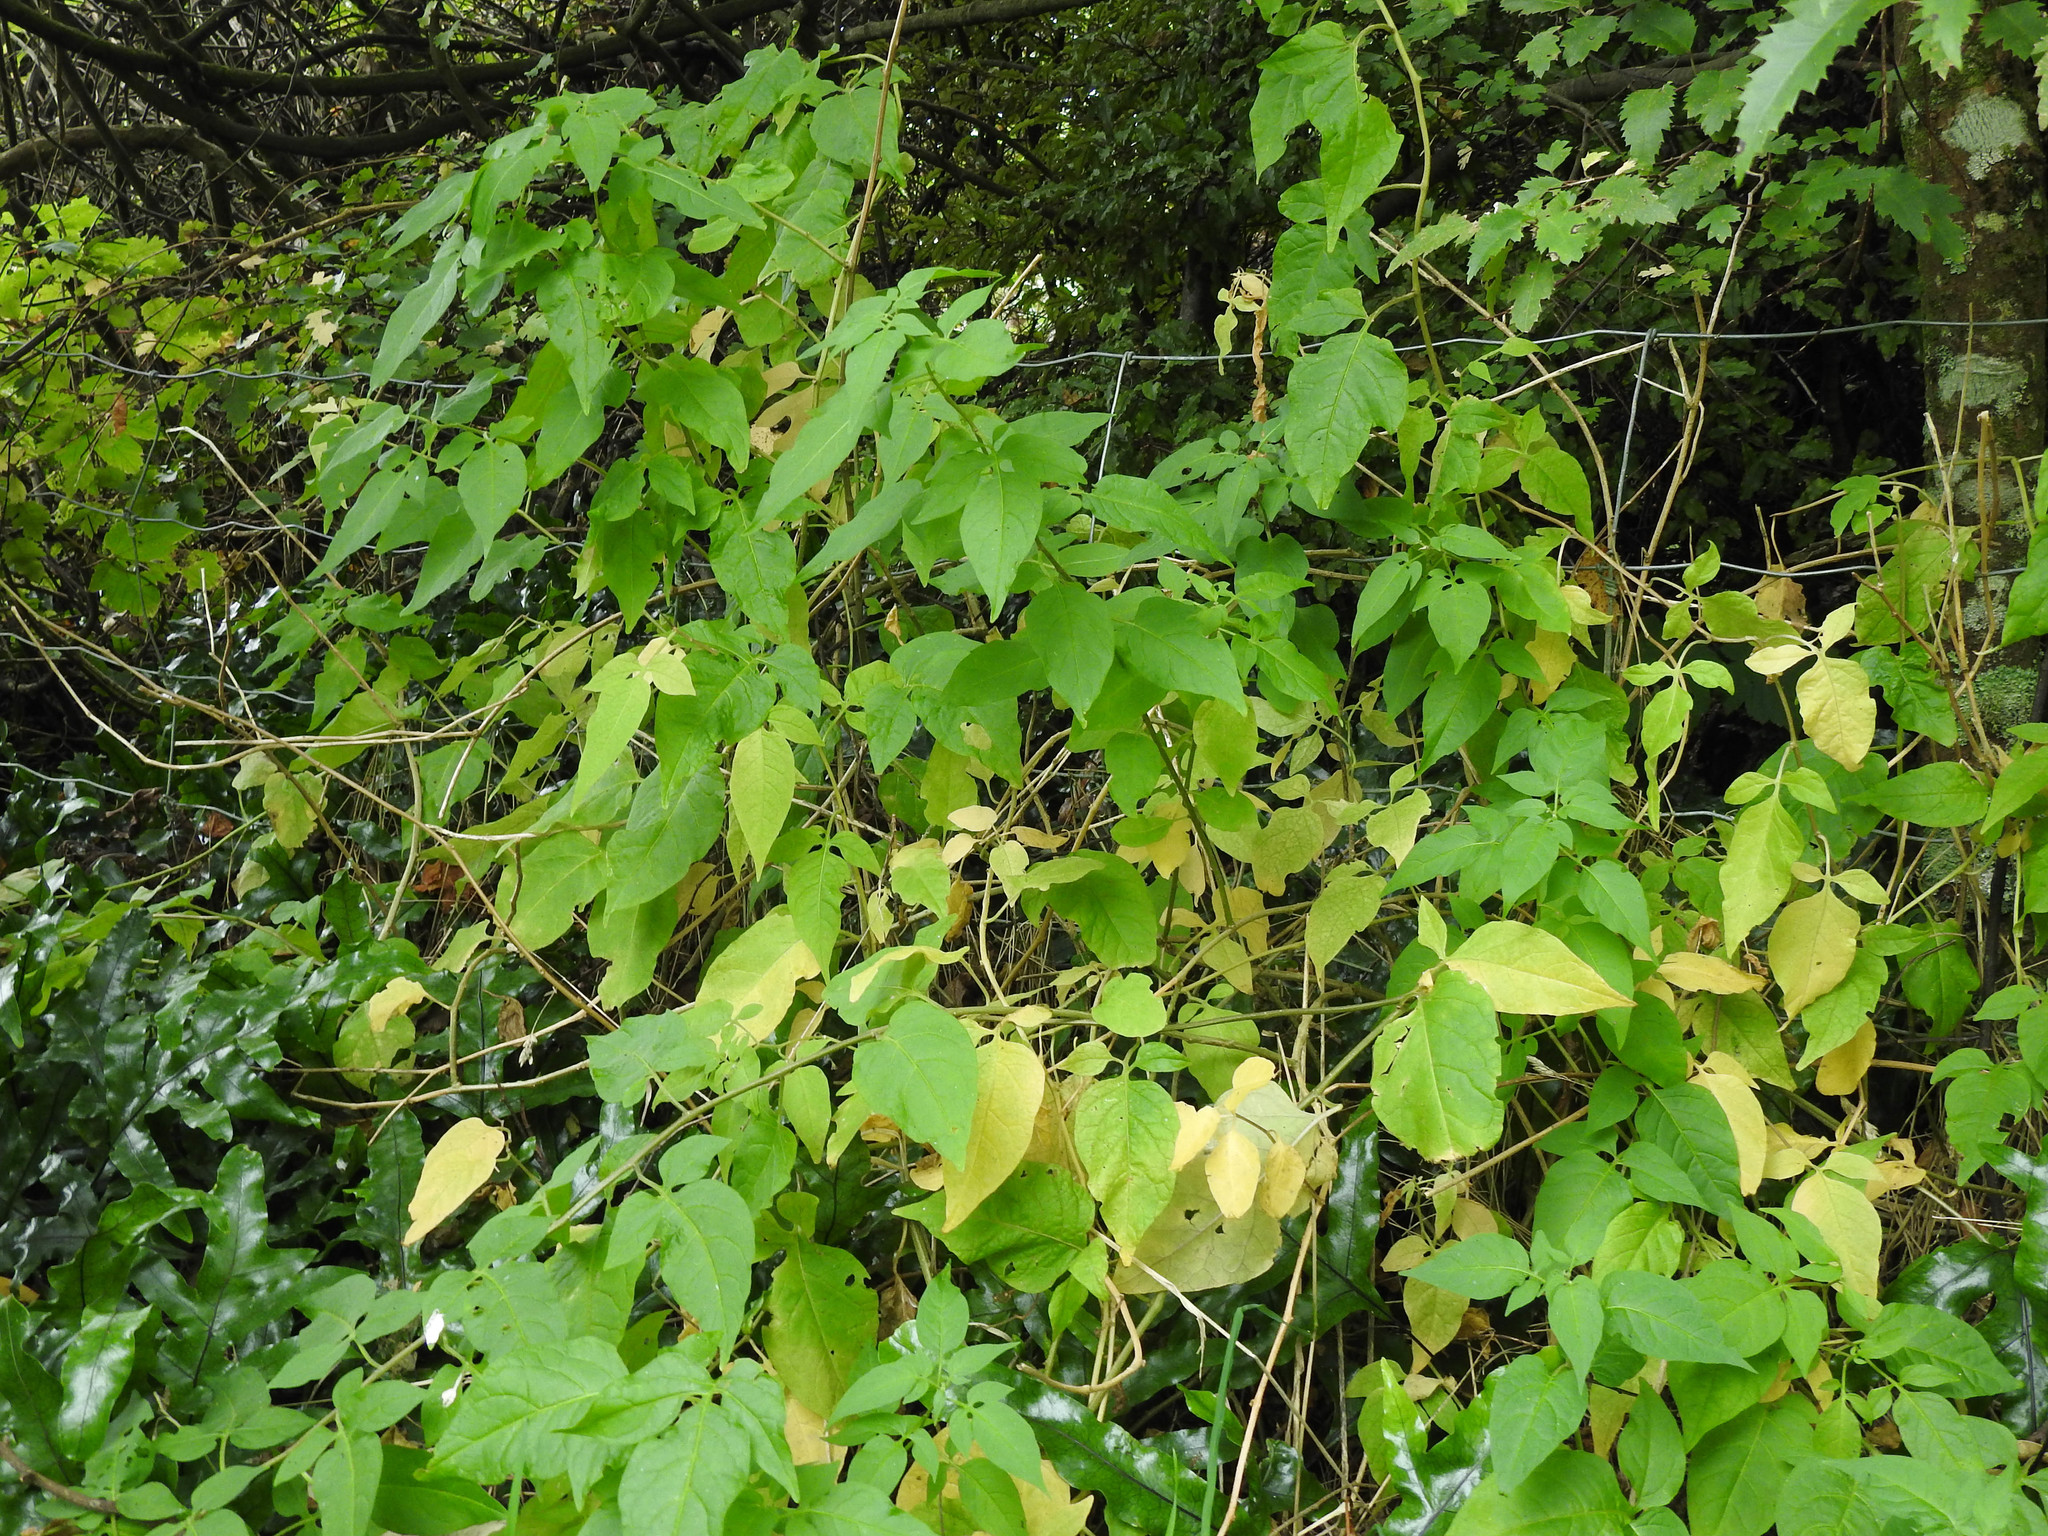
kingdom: Plantae
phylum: Tracheophyta
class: Magnoliopsida
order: Solanales
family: Solanaceae
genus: Solanum
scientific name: Solanum dulcamara
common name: Climbing nightshade
